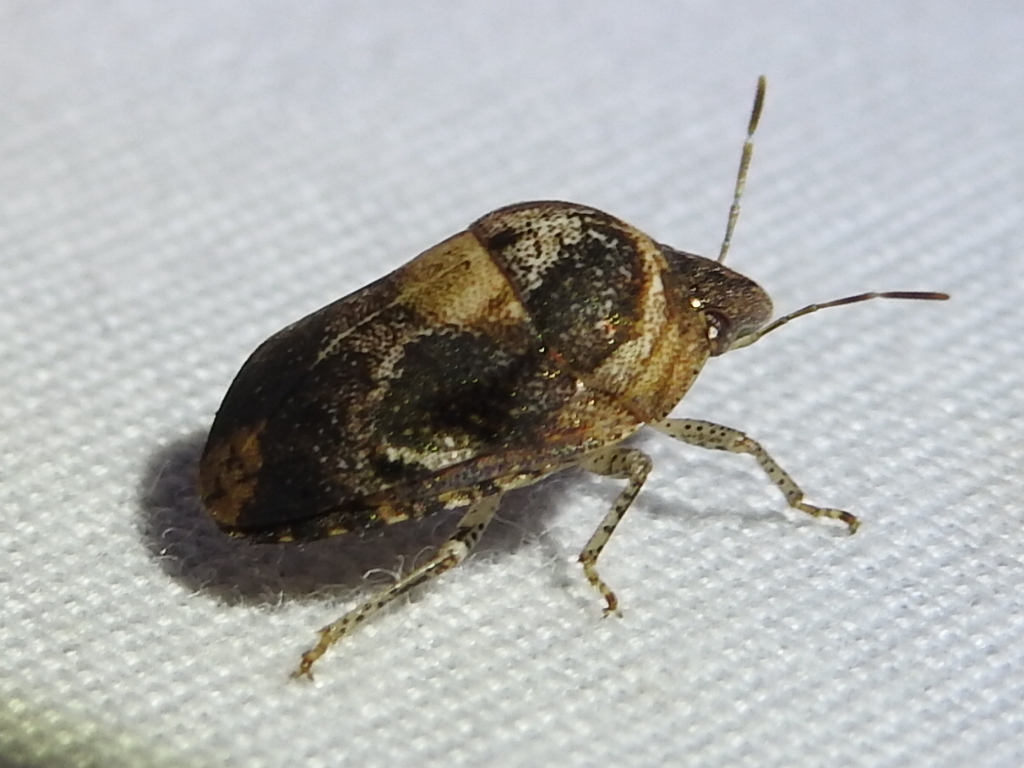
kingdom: Animalia
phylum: Arthropoda
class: Insecta
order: Hemiptera
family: Scutelleridae
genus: Symphylus
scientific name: Symphylus caribbeanus
